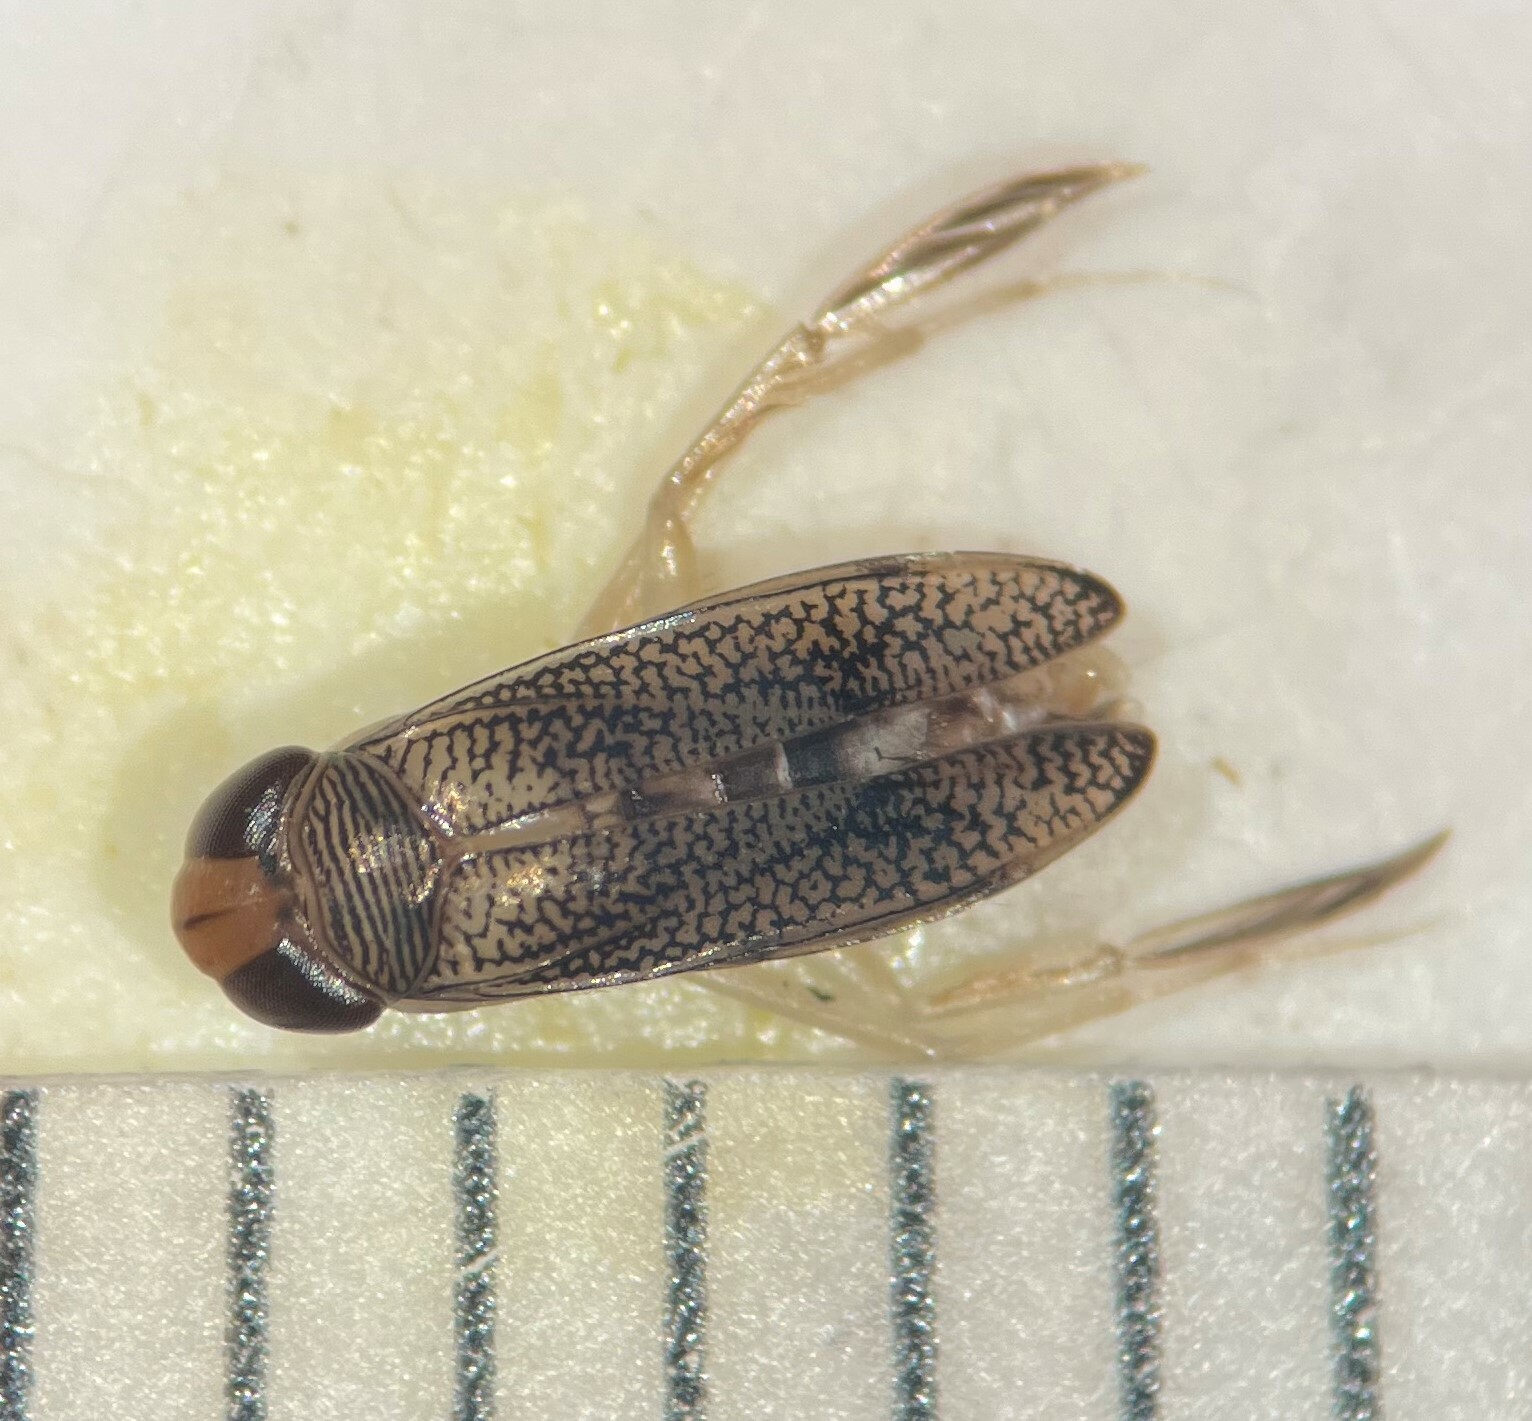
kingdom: Animalia
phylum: Arthropoda
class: Insecta
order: Hemiptera
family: Corixidae
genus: Palmacorixa
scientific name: Palmacorixa nana
